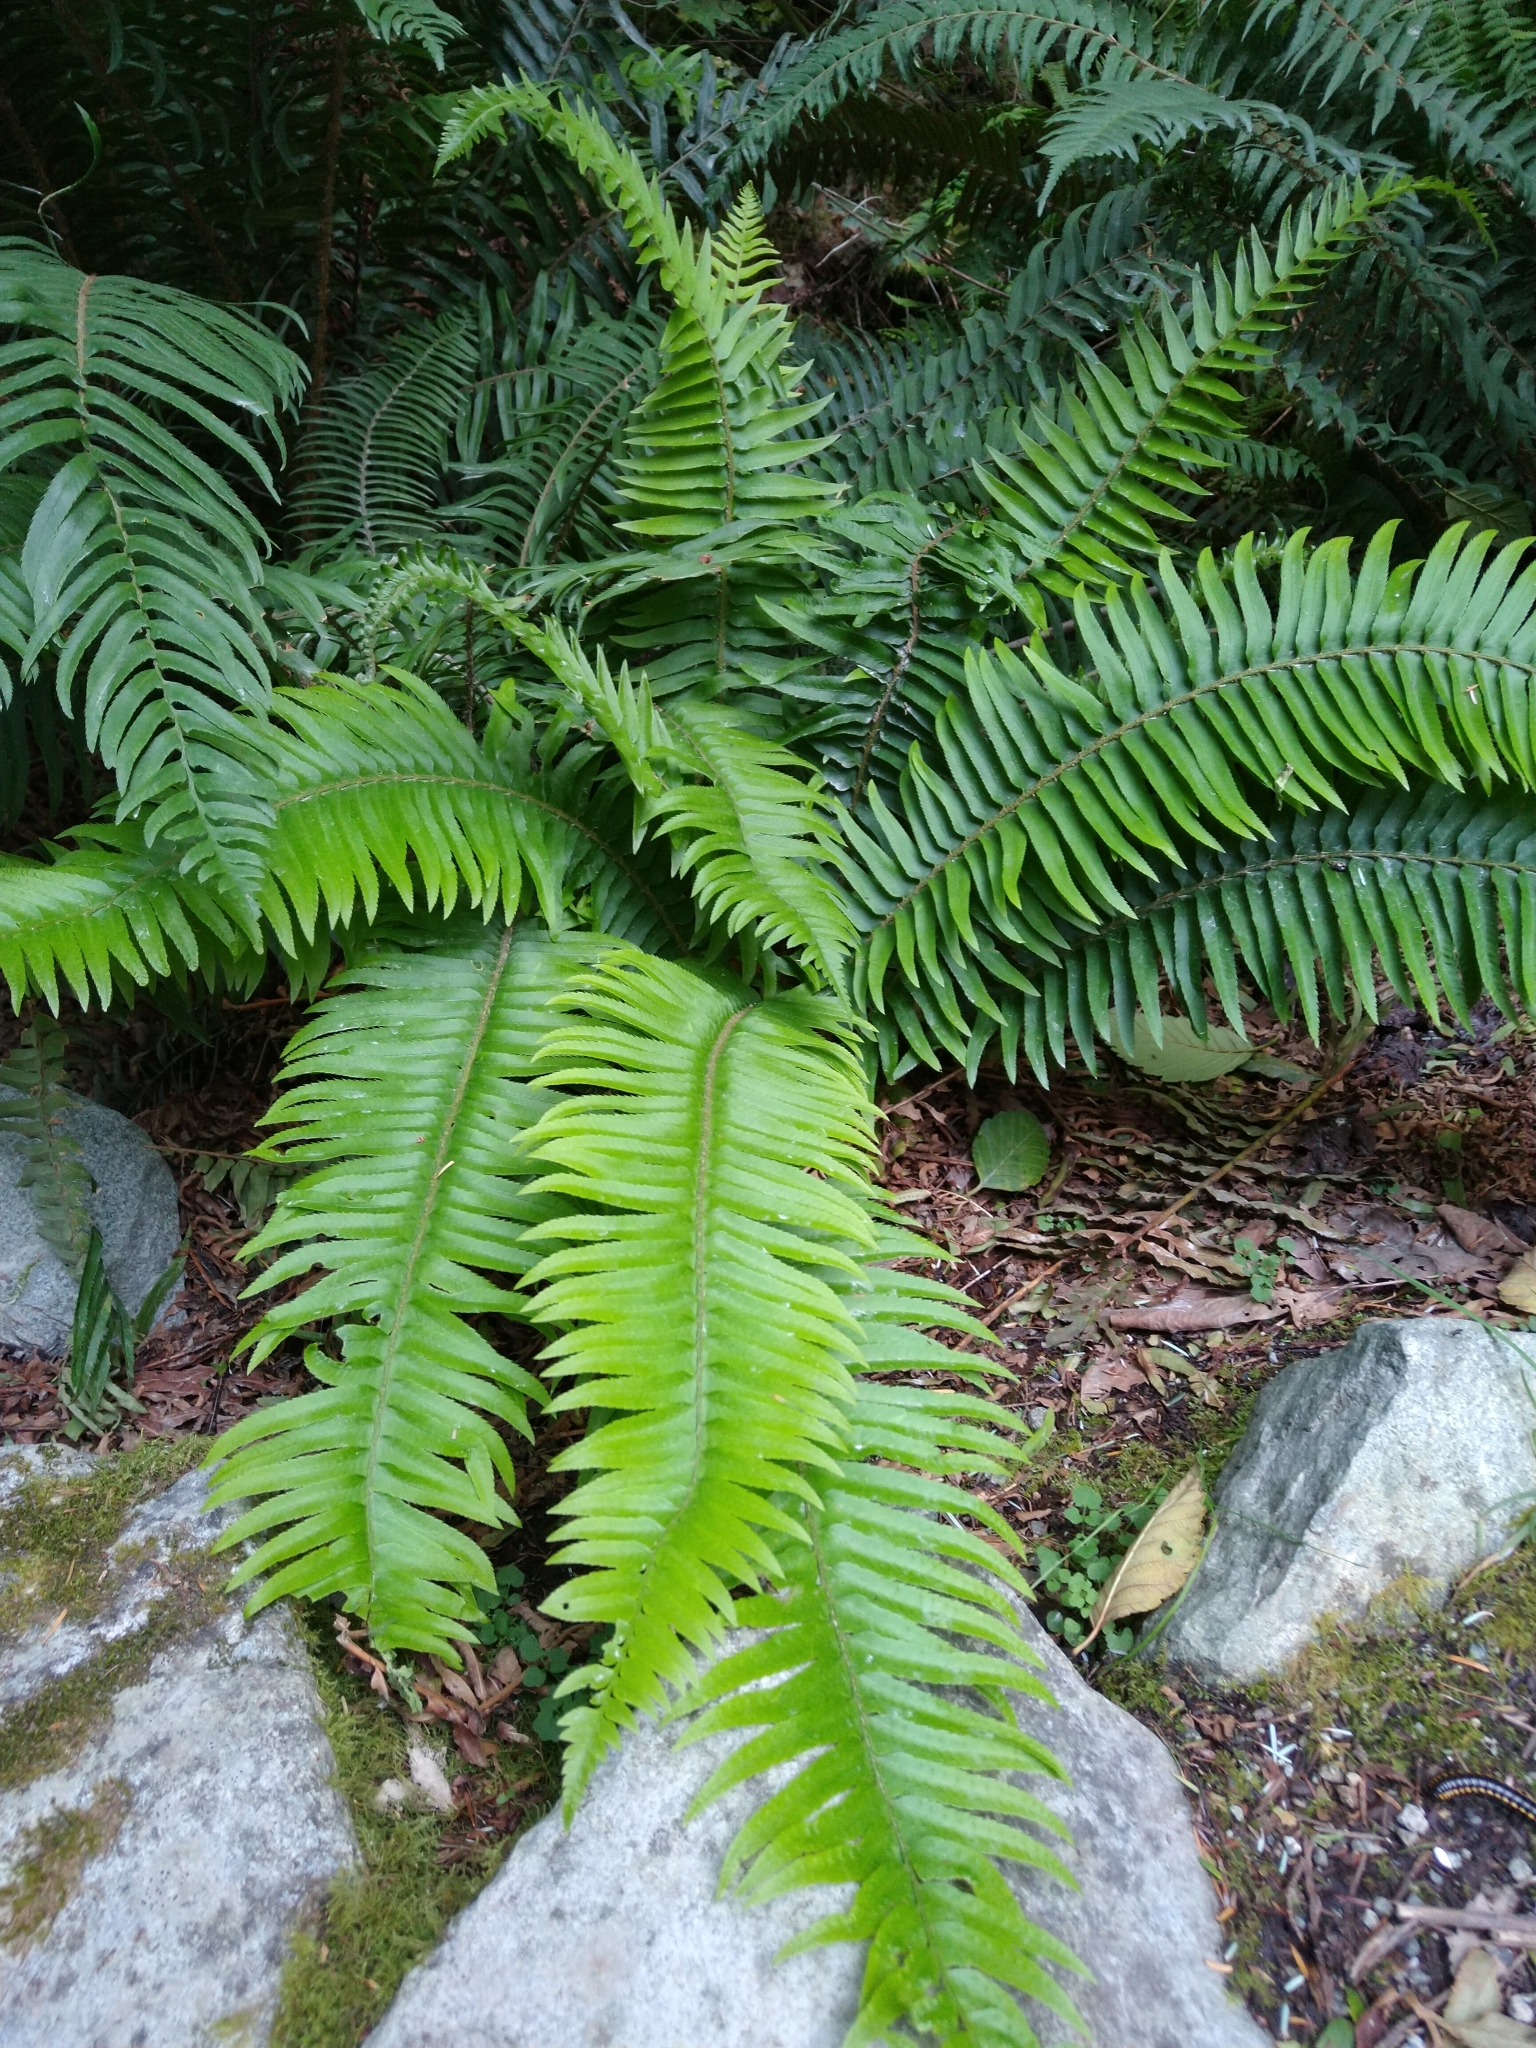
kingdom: Plantae
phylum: Tracheophyta
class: Polypodiopsida
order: Polypodiales
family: Dryopteridaceae
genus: Polystichum
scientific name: Polystichum munitum
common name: Western sword-fern
